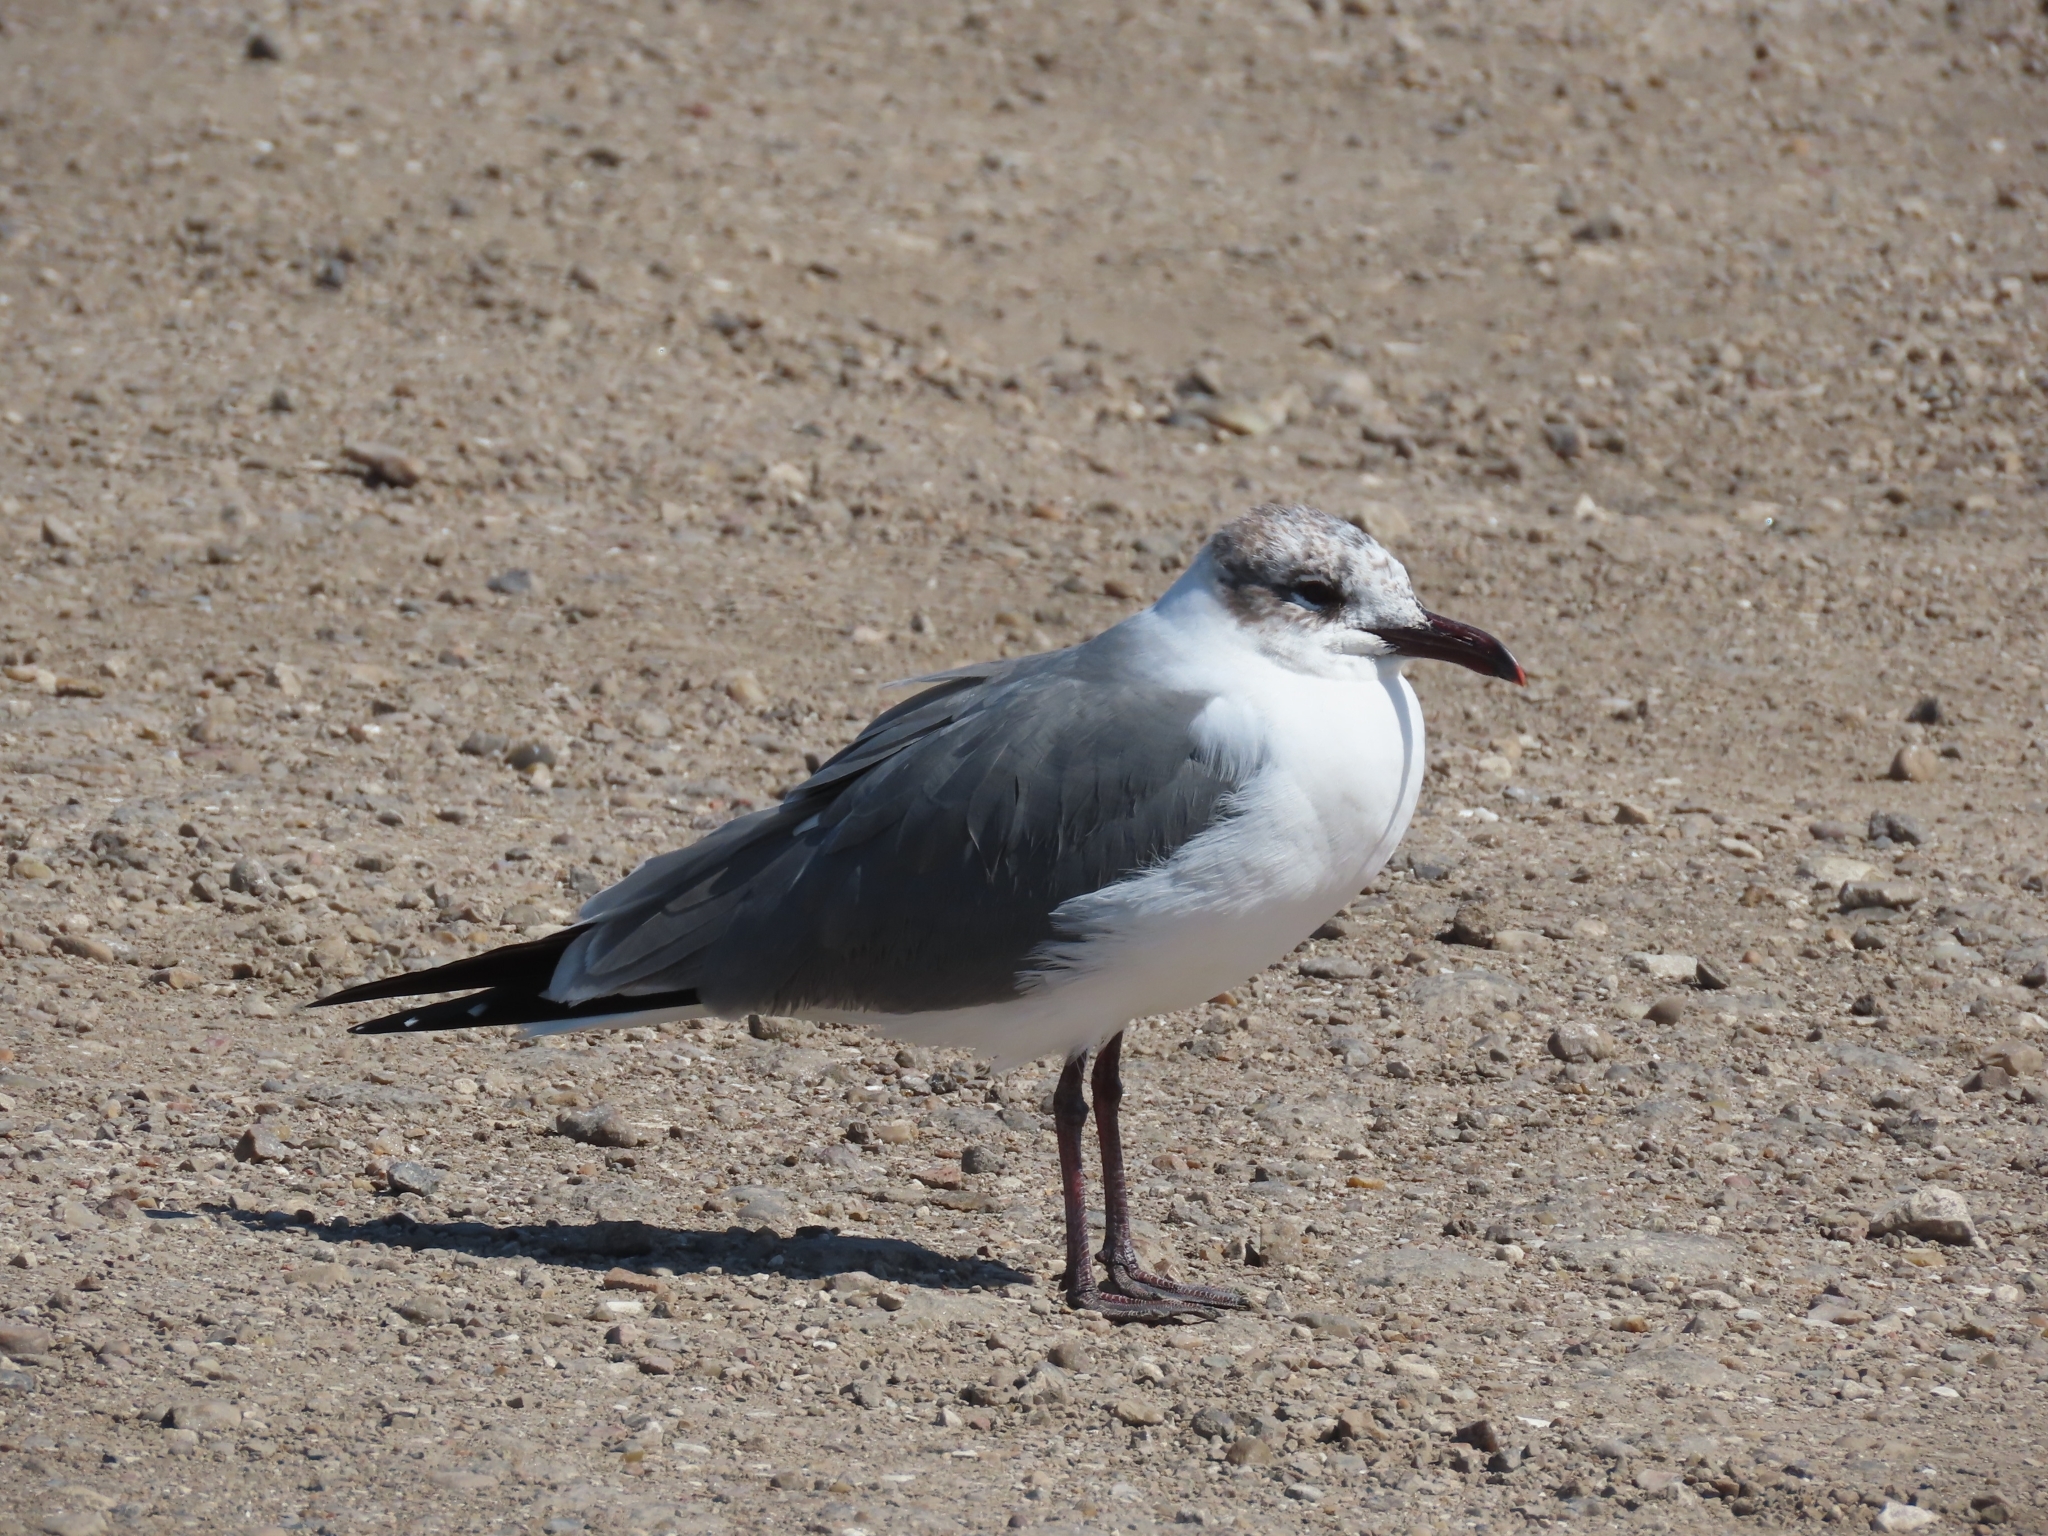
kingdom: Animalia
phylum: Chordata
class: Aves
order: Charadriiformes
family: Laridae
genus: Leucophaeus
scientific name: Leucophaeus atricilla
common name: Laughing gull
